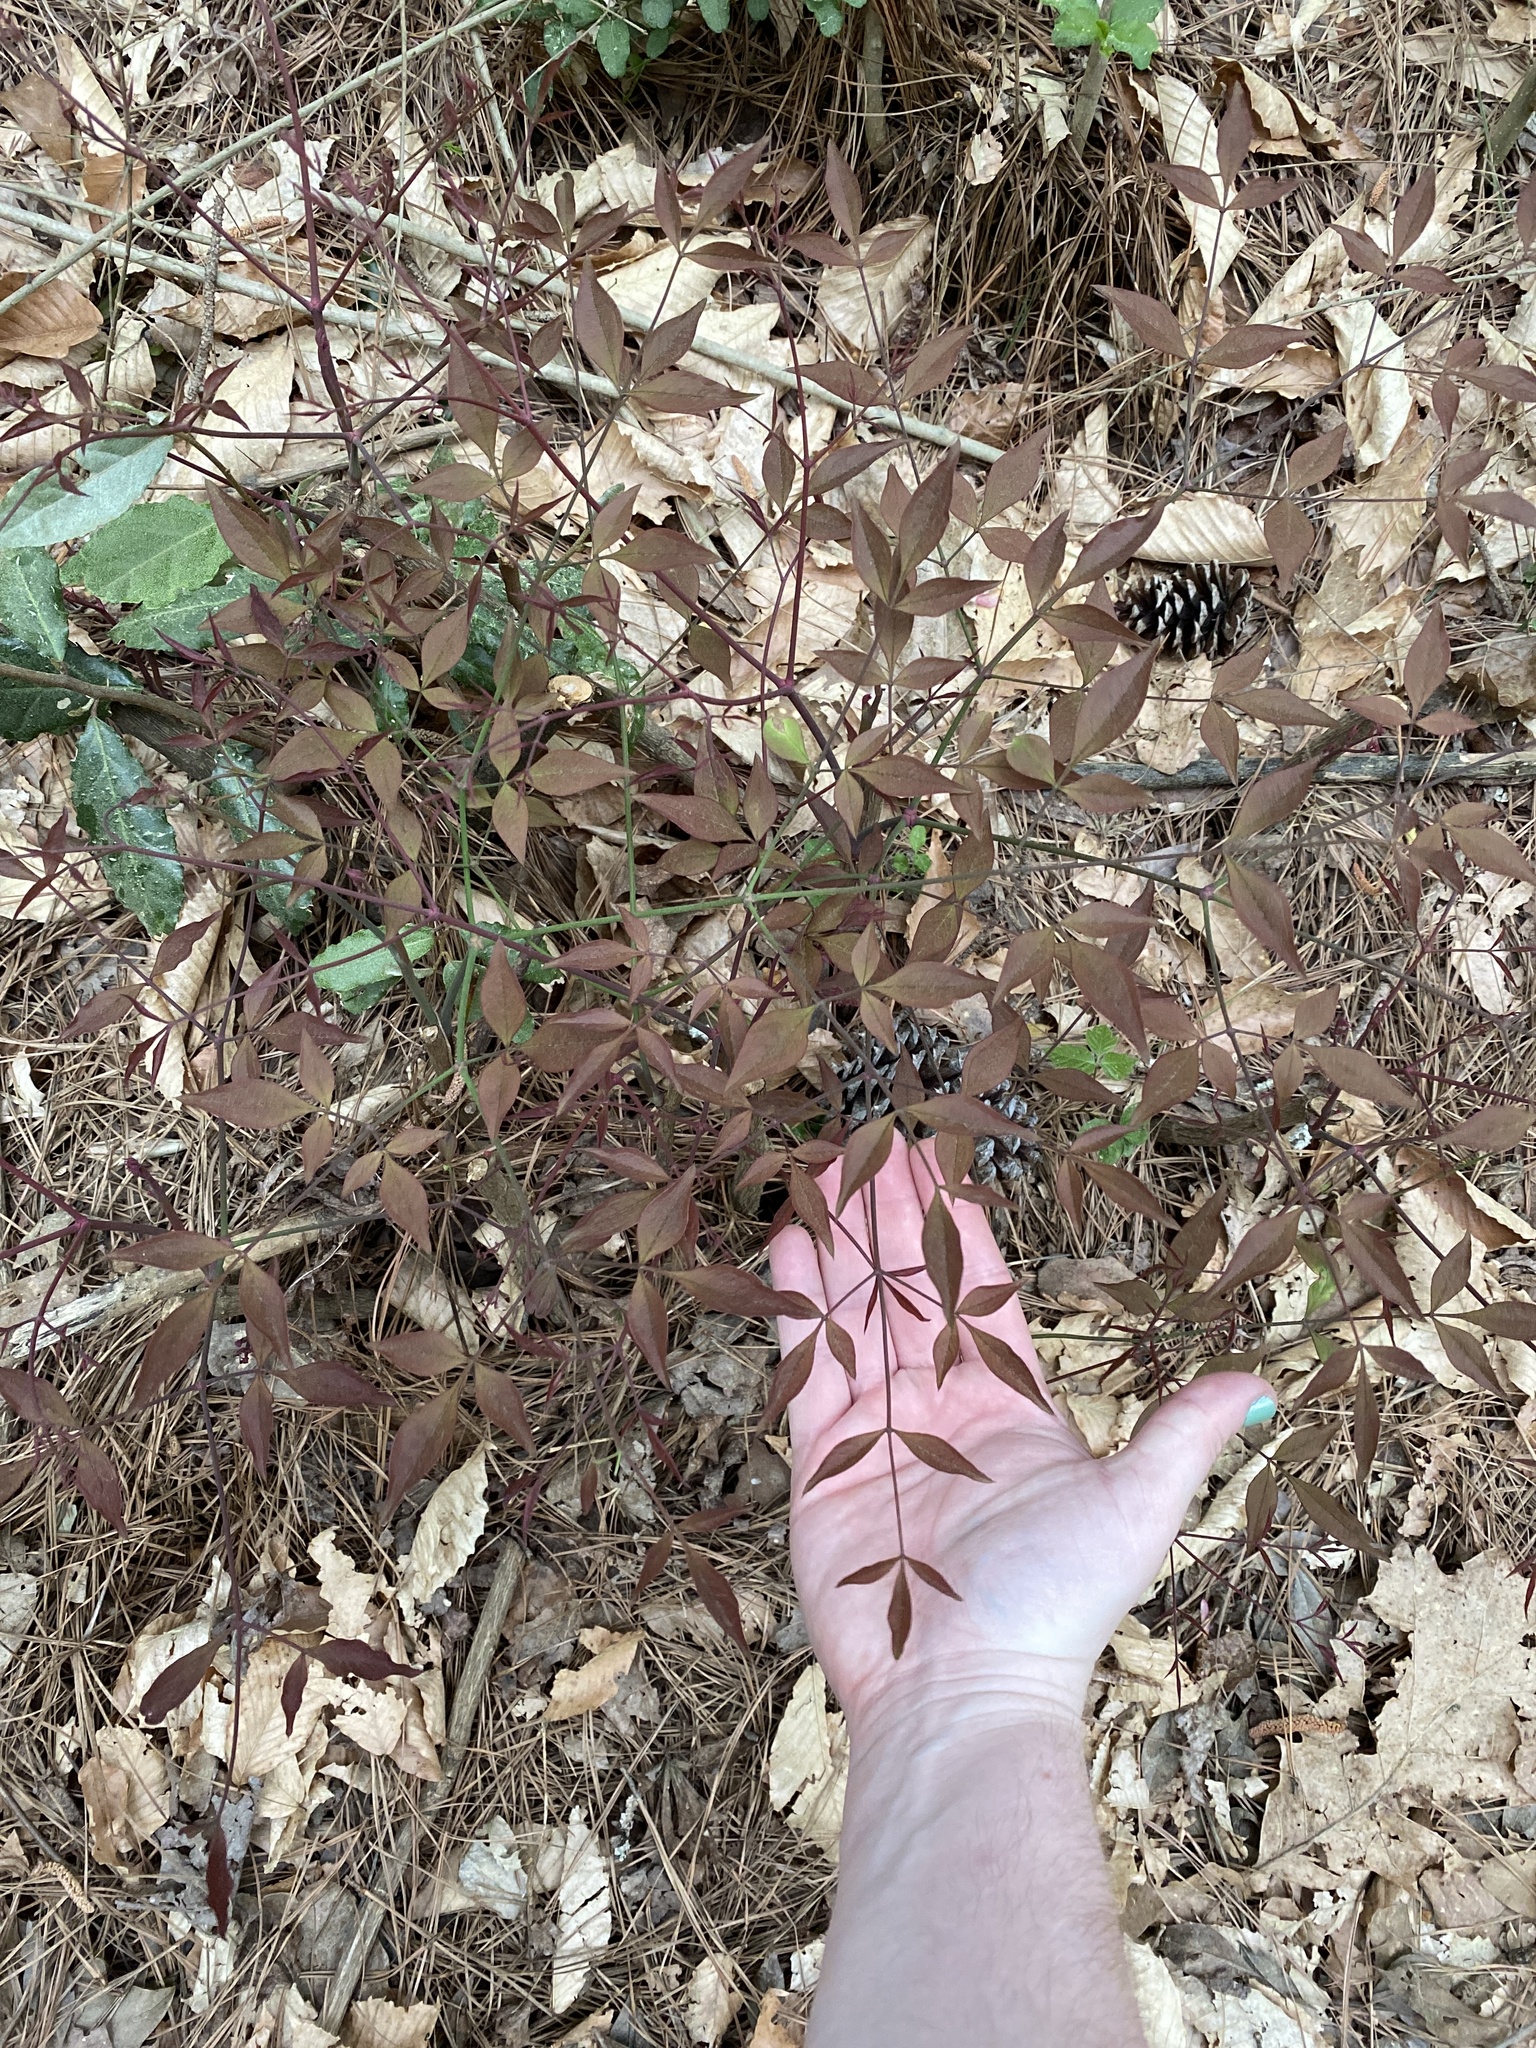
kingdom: Plantae
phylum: Tracheophyta
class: Magnoliopsida
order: Ranunculales
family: Berberidaceae
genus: Nandina
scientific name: Nandina domestica
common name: Sacred bamboo
